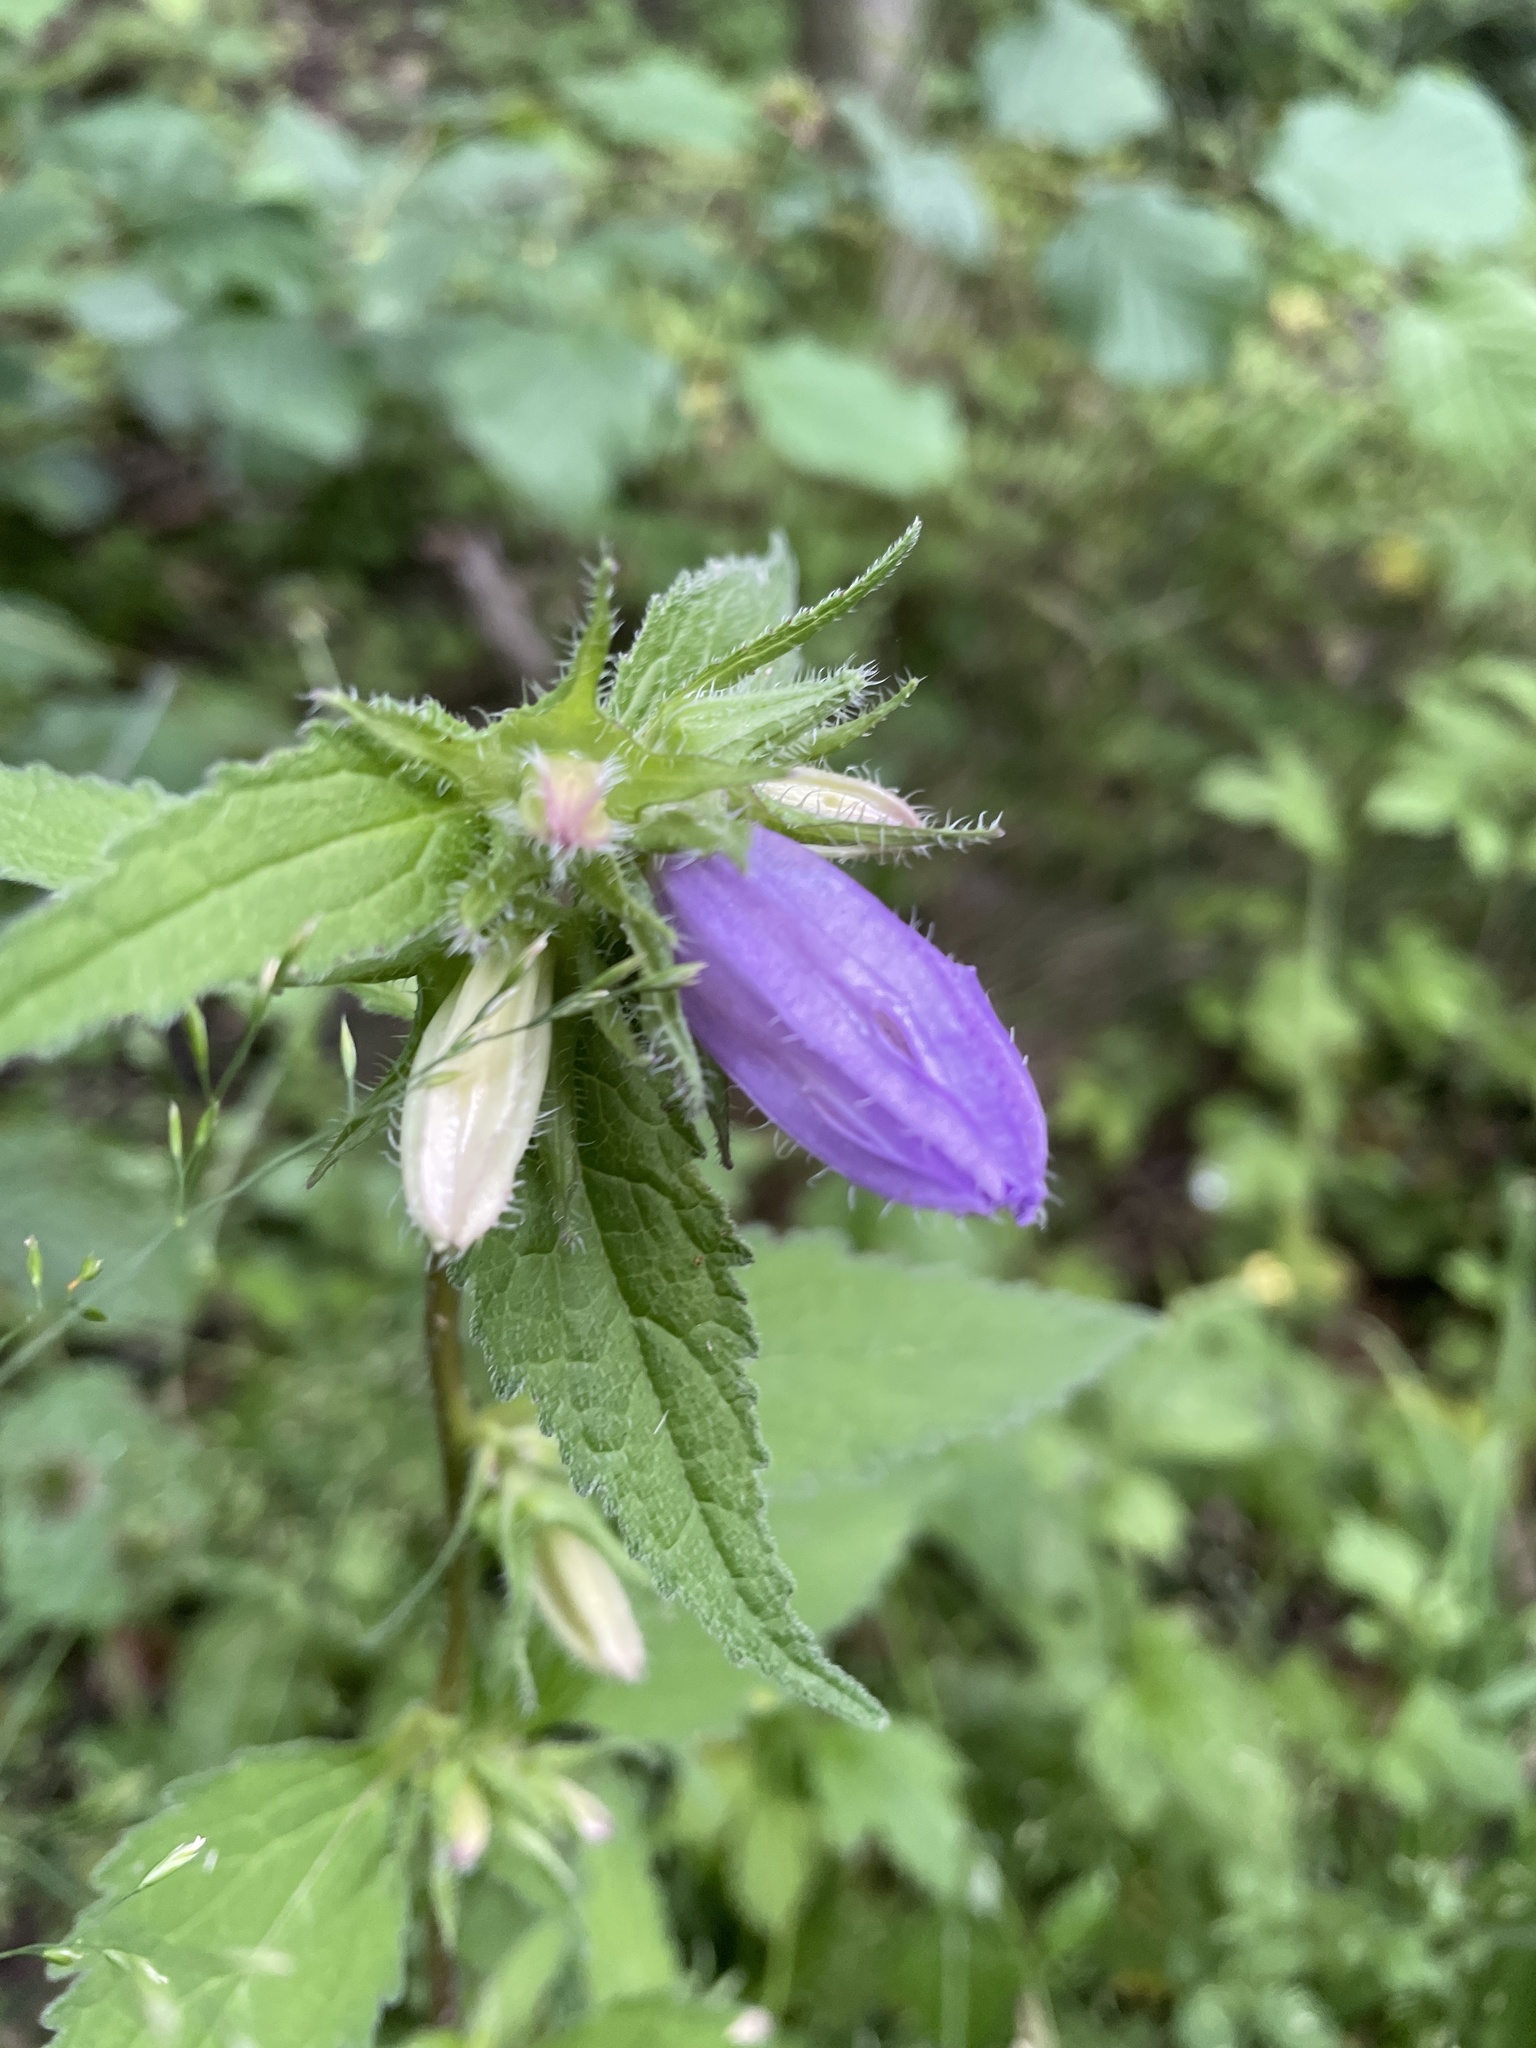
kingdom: Plantae
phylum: Tracheophyta
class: Magnoliopsida
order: Asterales
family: Campanulaceae
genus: Campanula
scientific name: Campanula trachelium
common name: Nettle-leaved bellflower
